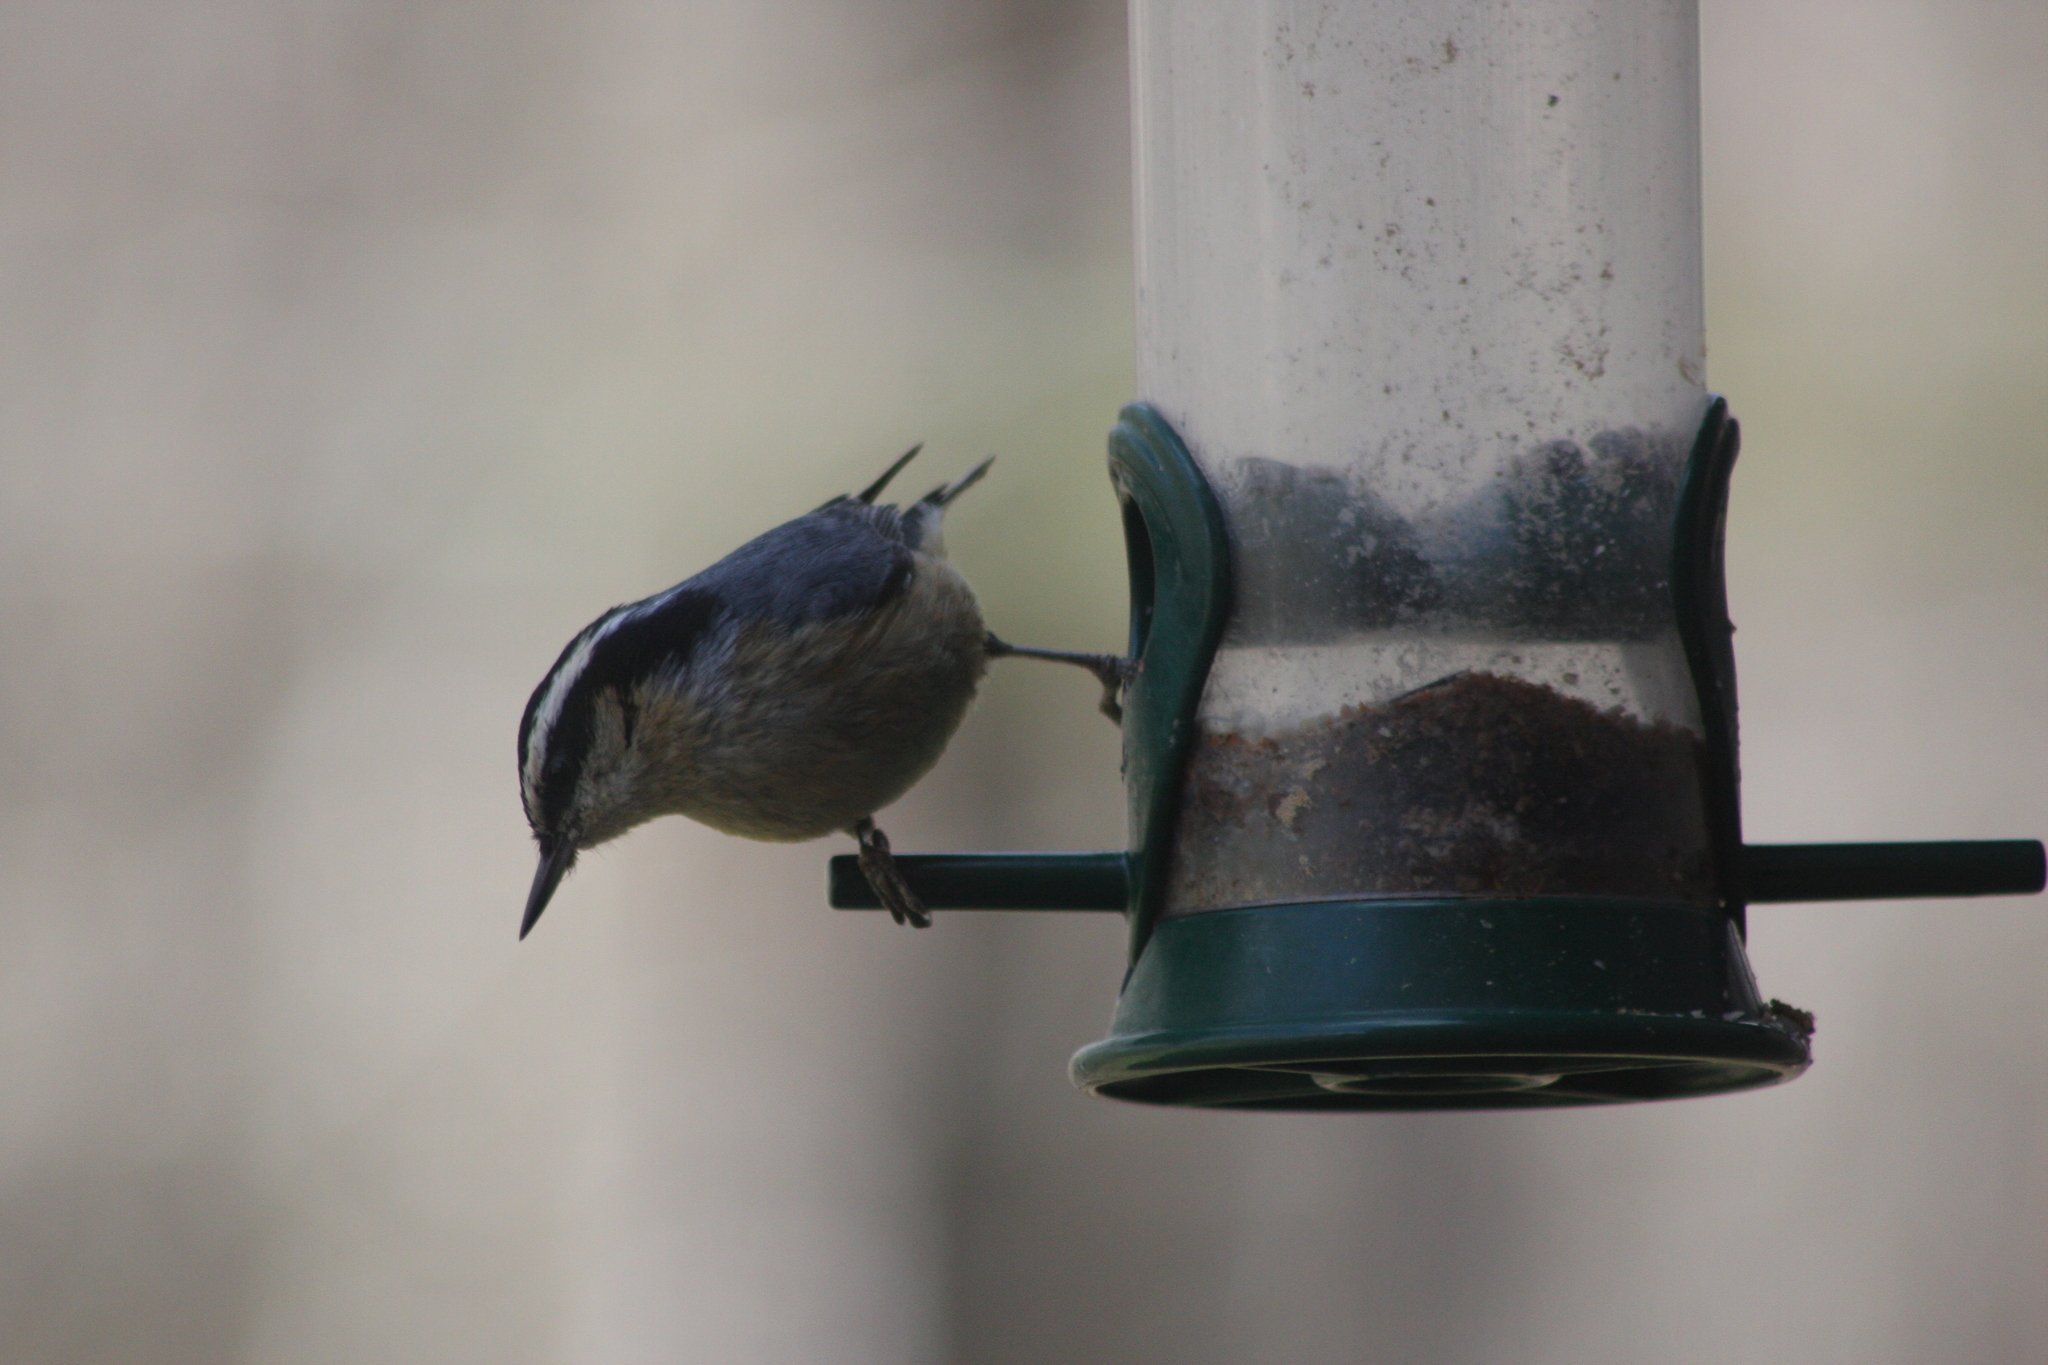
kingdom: Animalia
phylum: Chordata
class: Aves
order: Passeriformes
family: Sittidae
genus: Sitta
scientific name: Sitta canadensis
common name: Red-breasted nuthatch
